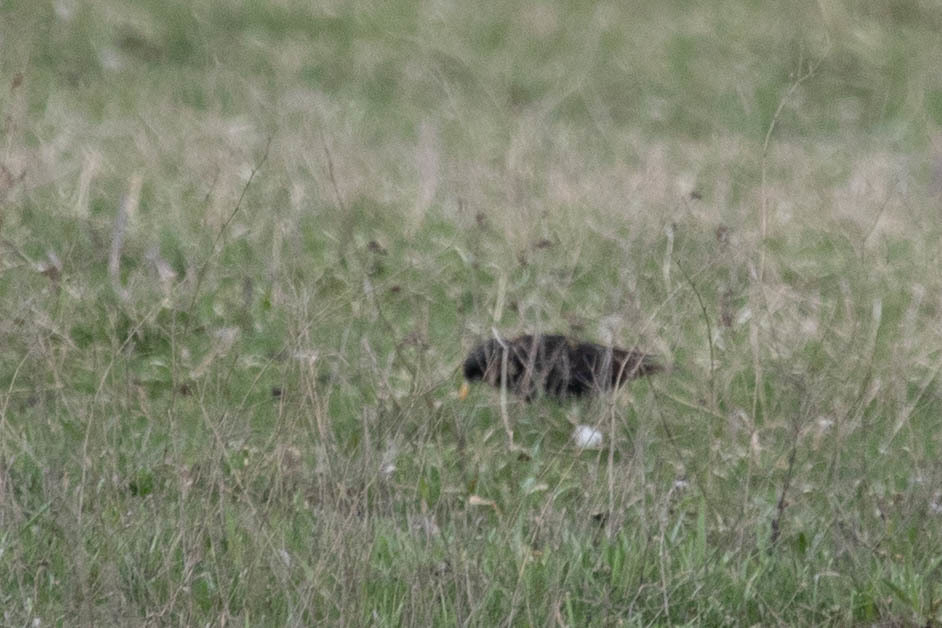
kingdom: Animalia
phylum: Chordata
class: Aves
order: Passeriformes
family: Sturnidae
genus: Sturnus
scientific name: Sturnus vulgaris
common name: Common starling
